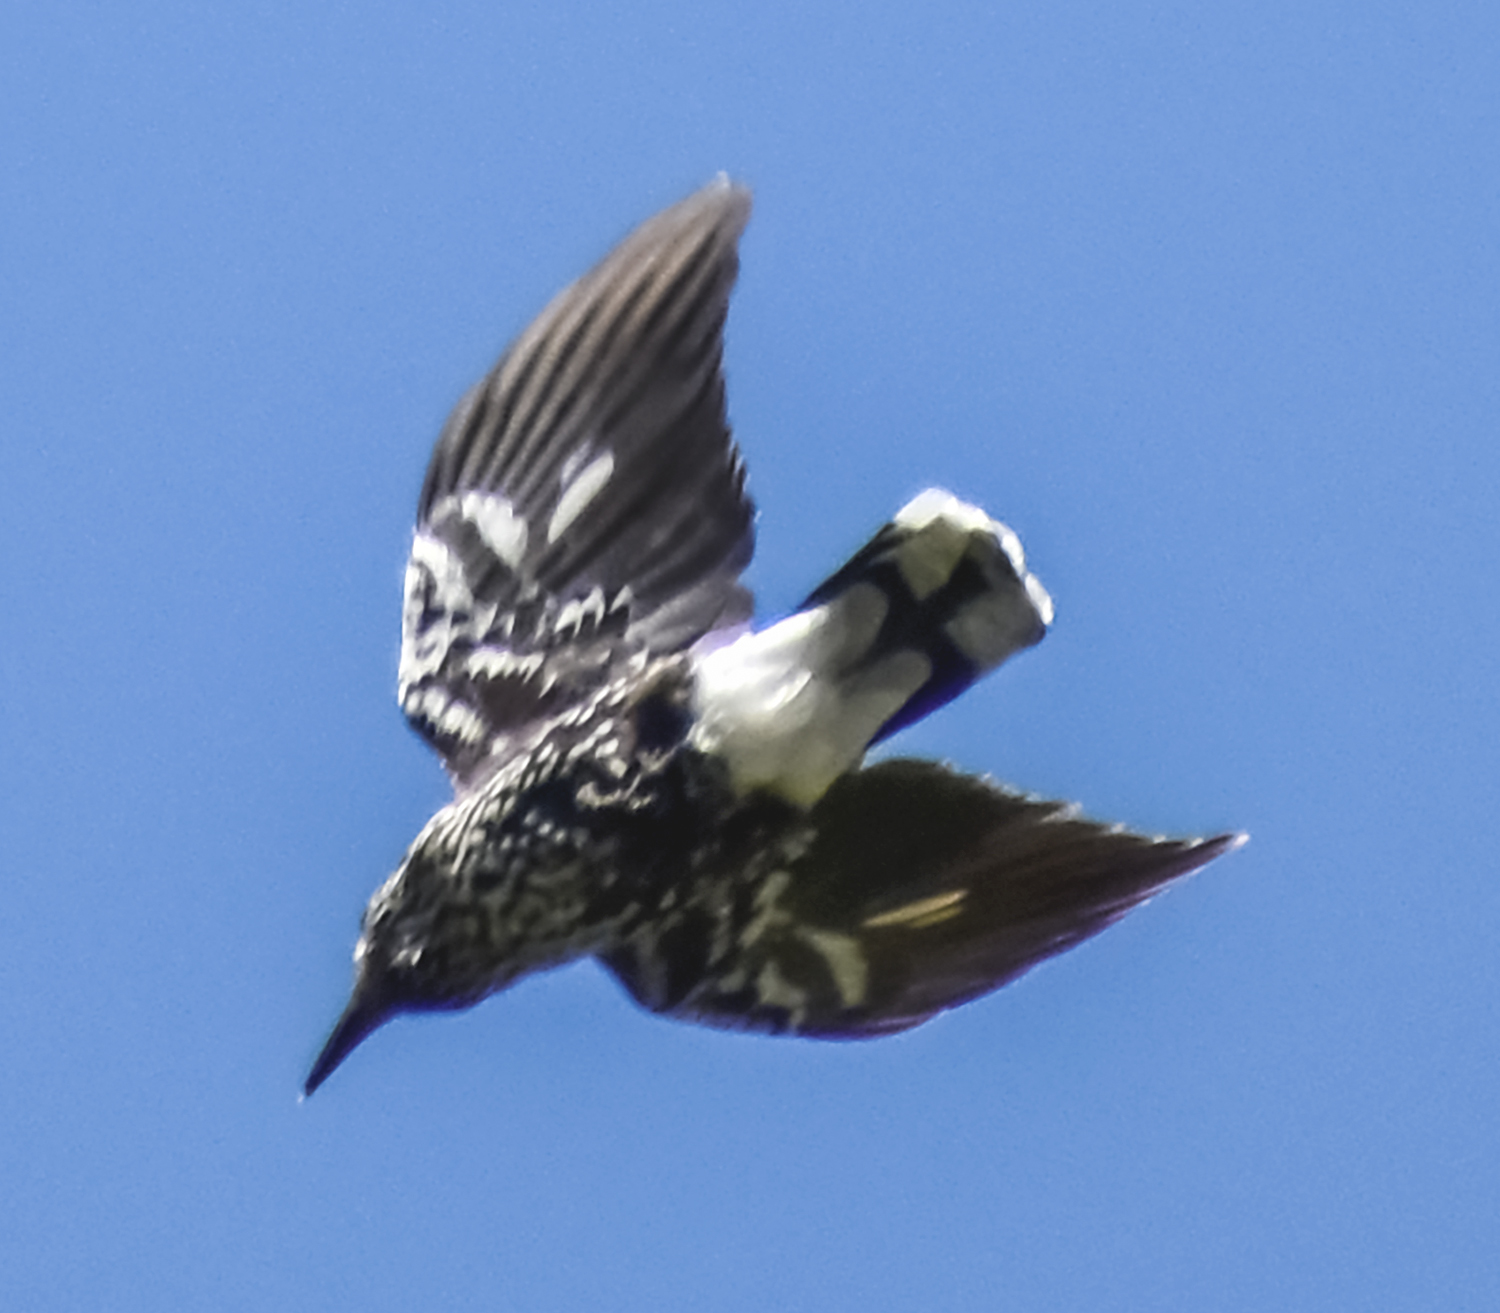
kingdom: Animalia
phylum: Chordata
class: Aves
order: Passeriformes
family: Corvidae
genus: Nucifraga
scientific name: Nucifraga caryocatactes
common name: Spotted nutcracker
